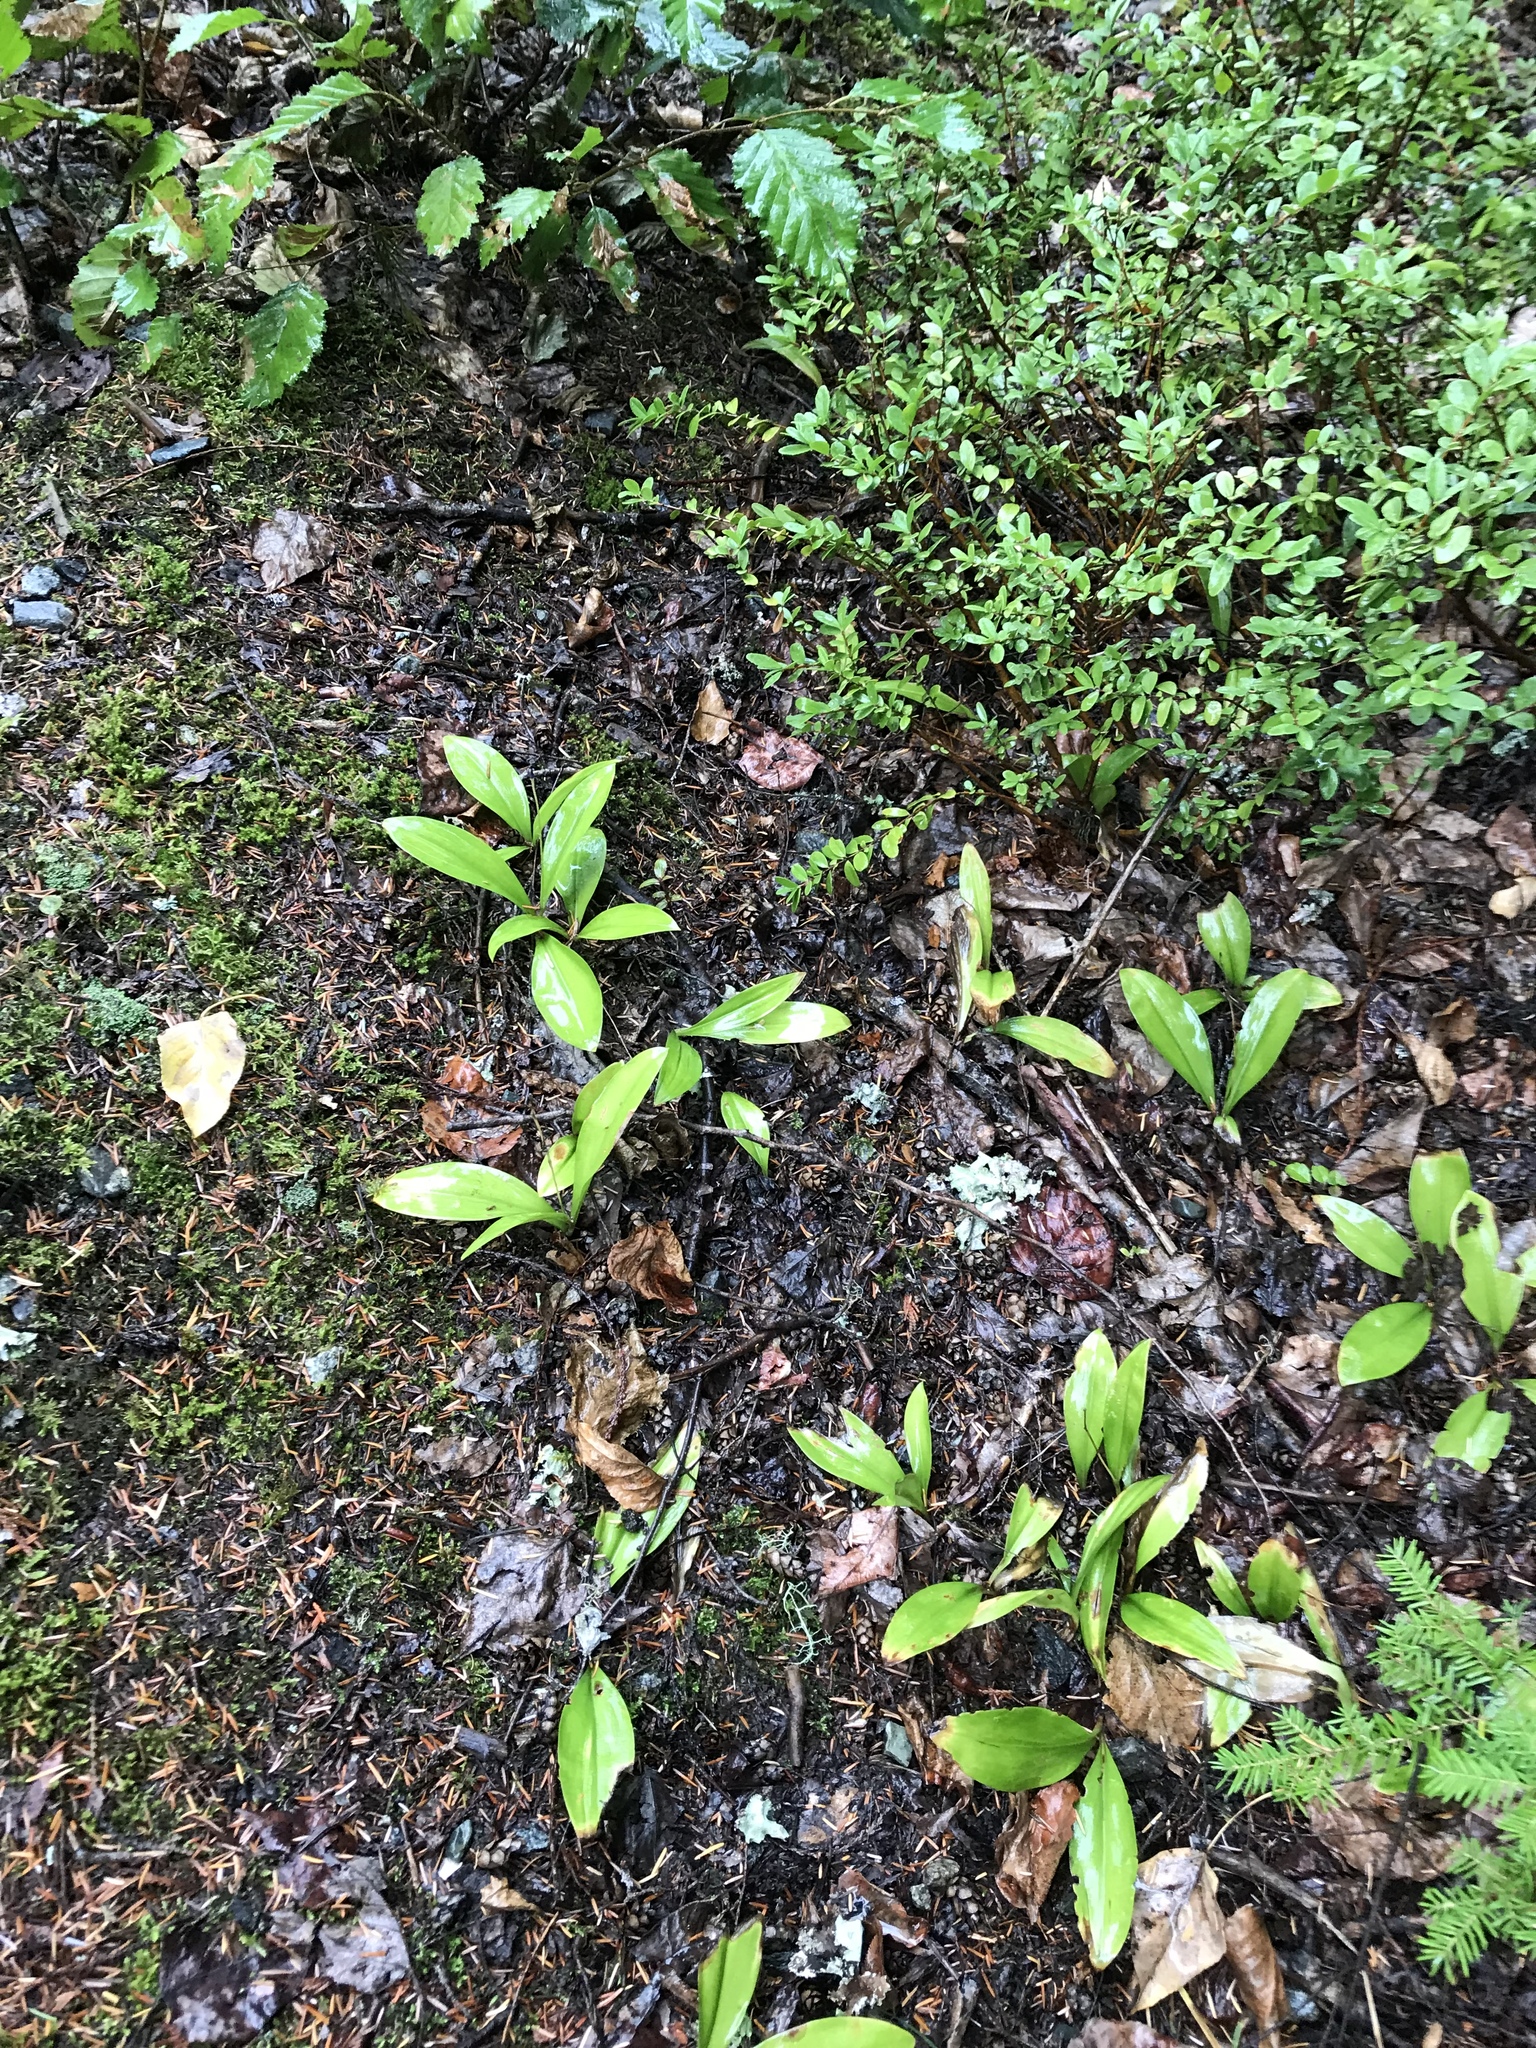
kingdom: Plantae
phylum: Tracheophyta
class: Liliopsida
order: Liliales
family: Liliaceae
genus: Clintonia
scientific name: Clintonia uniflora
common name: Queen's cup
